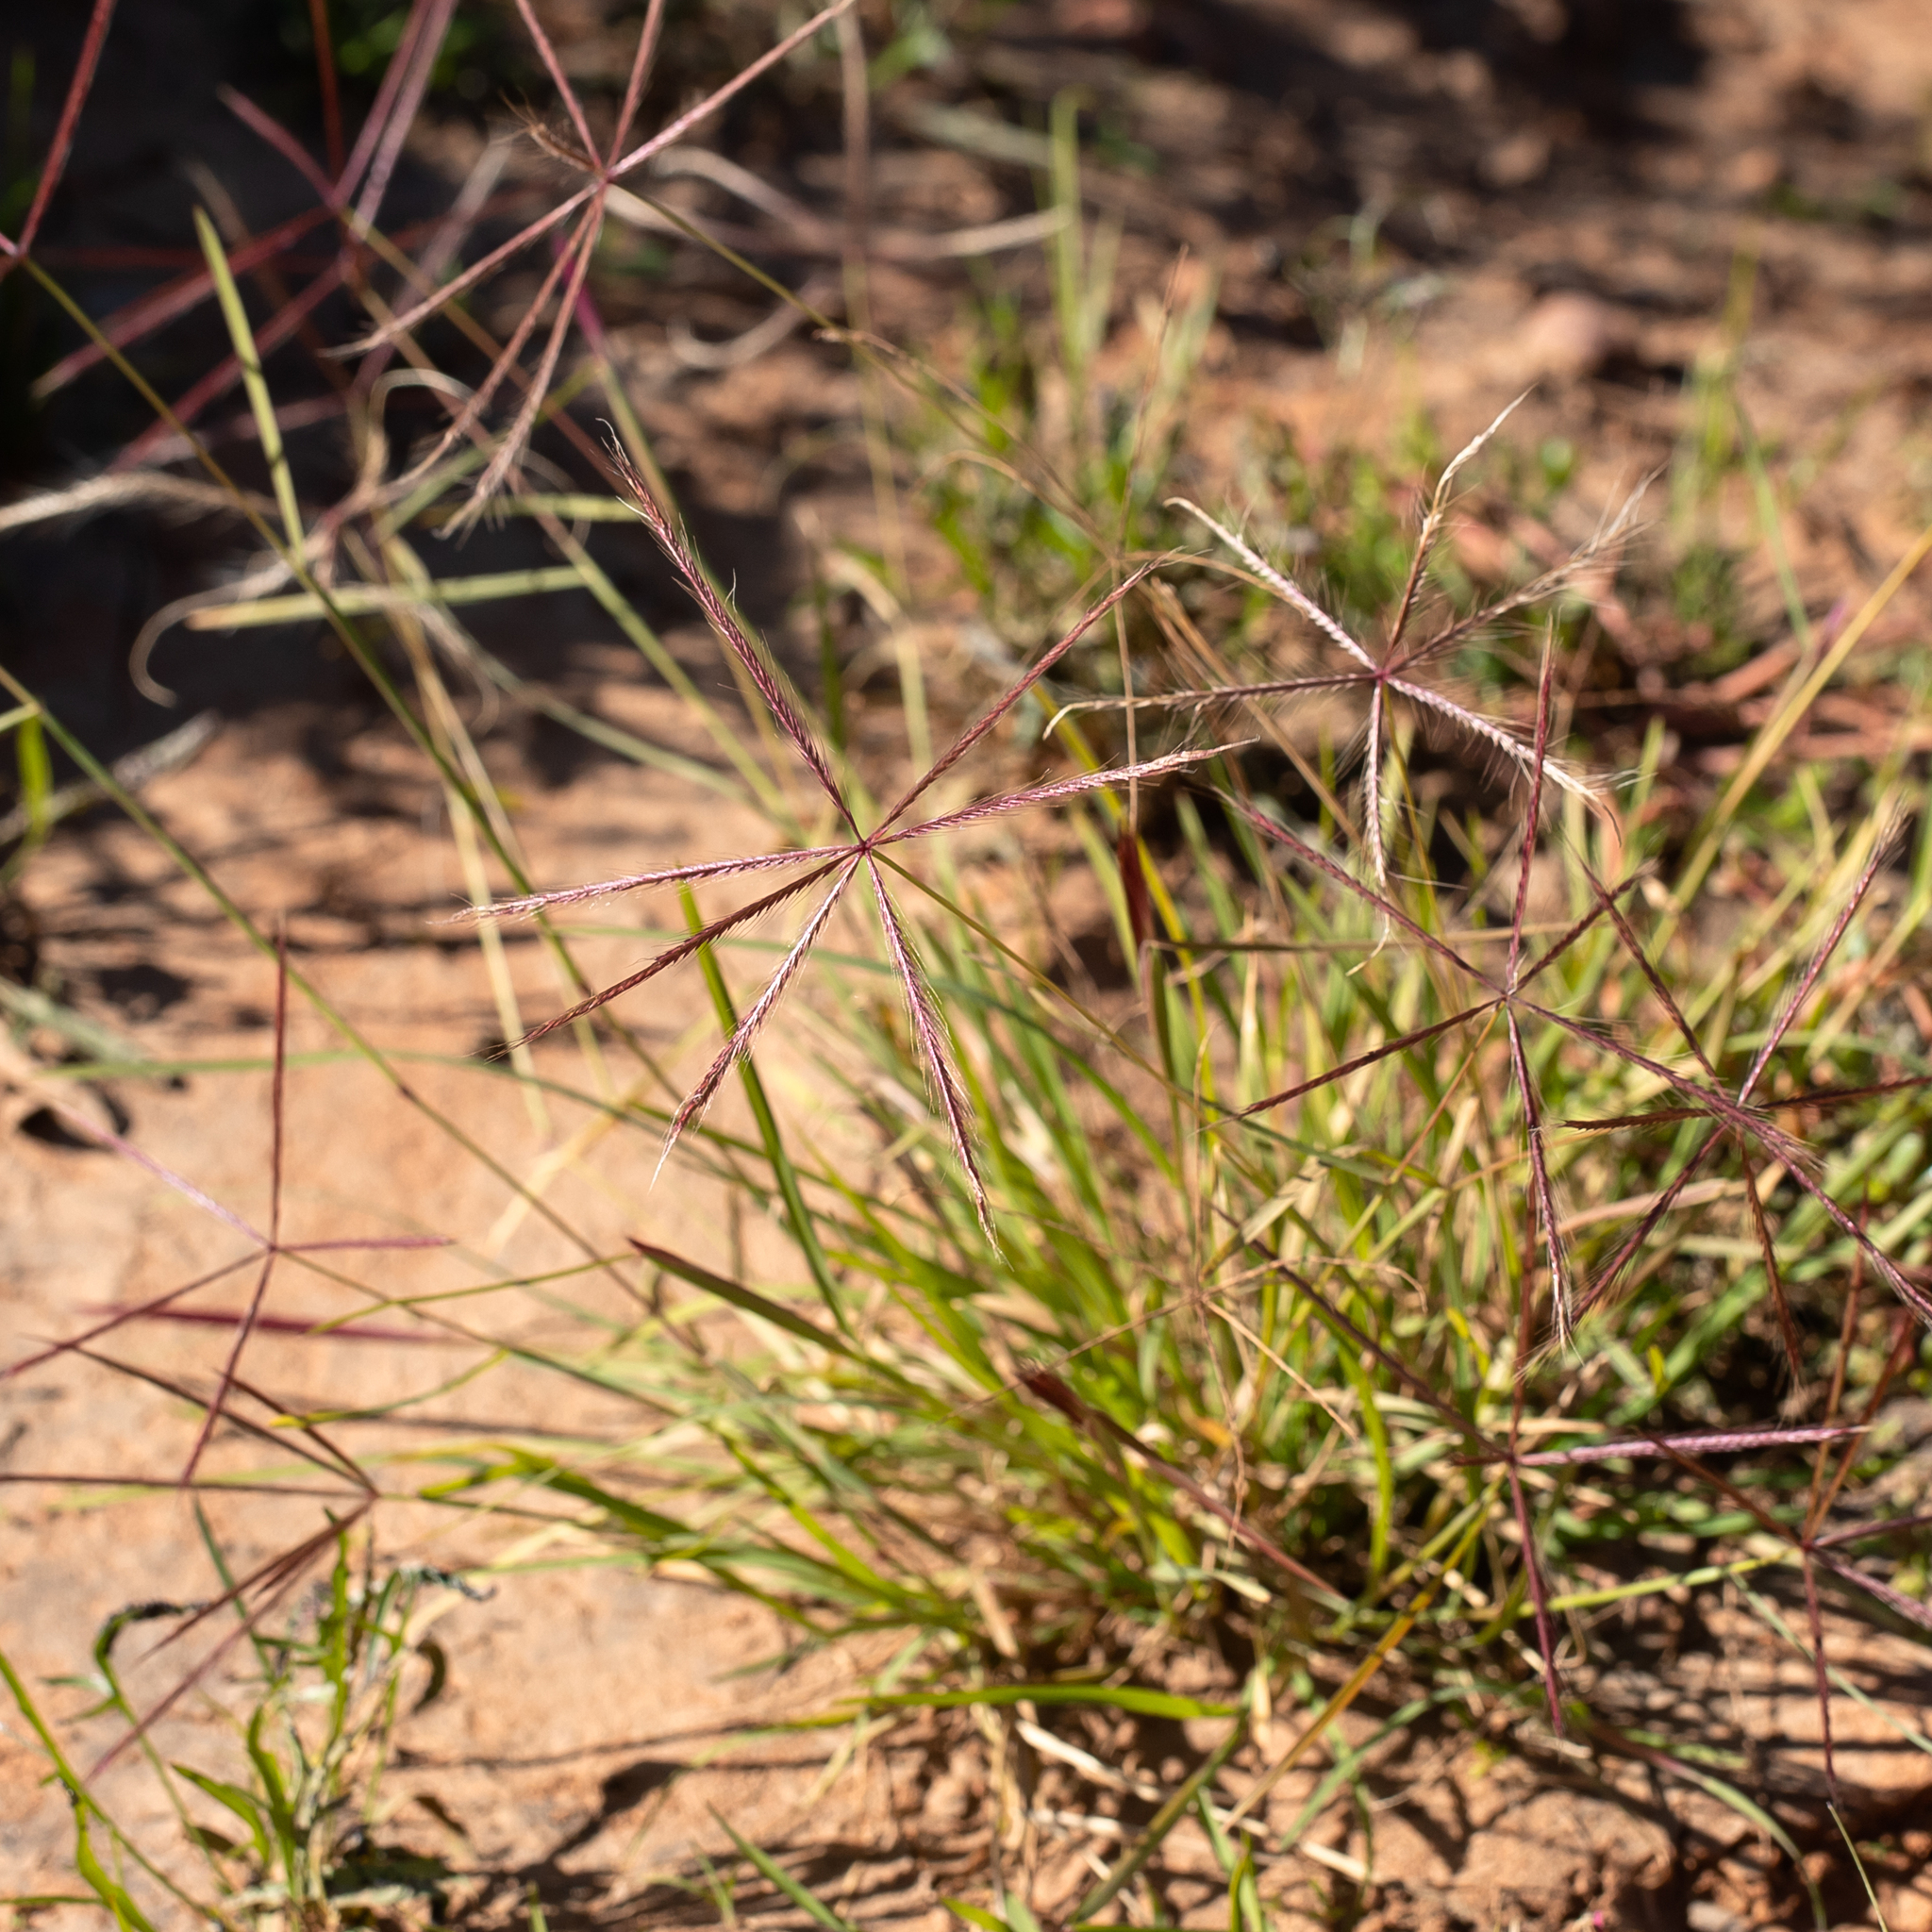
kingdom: Plantae
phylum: Tracheophyta
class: Liliopsida
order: Poales
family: Poaceae
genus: Chloris
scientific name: Chloris pectinata
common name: Comb windmill grass
